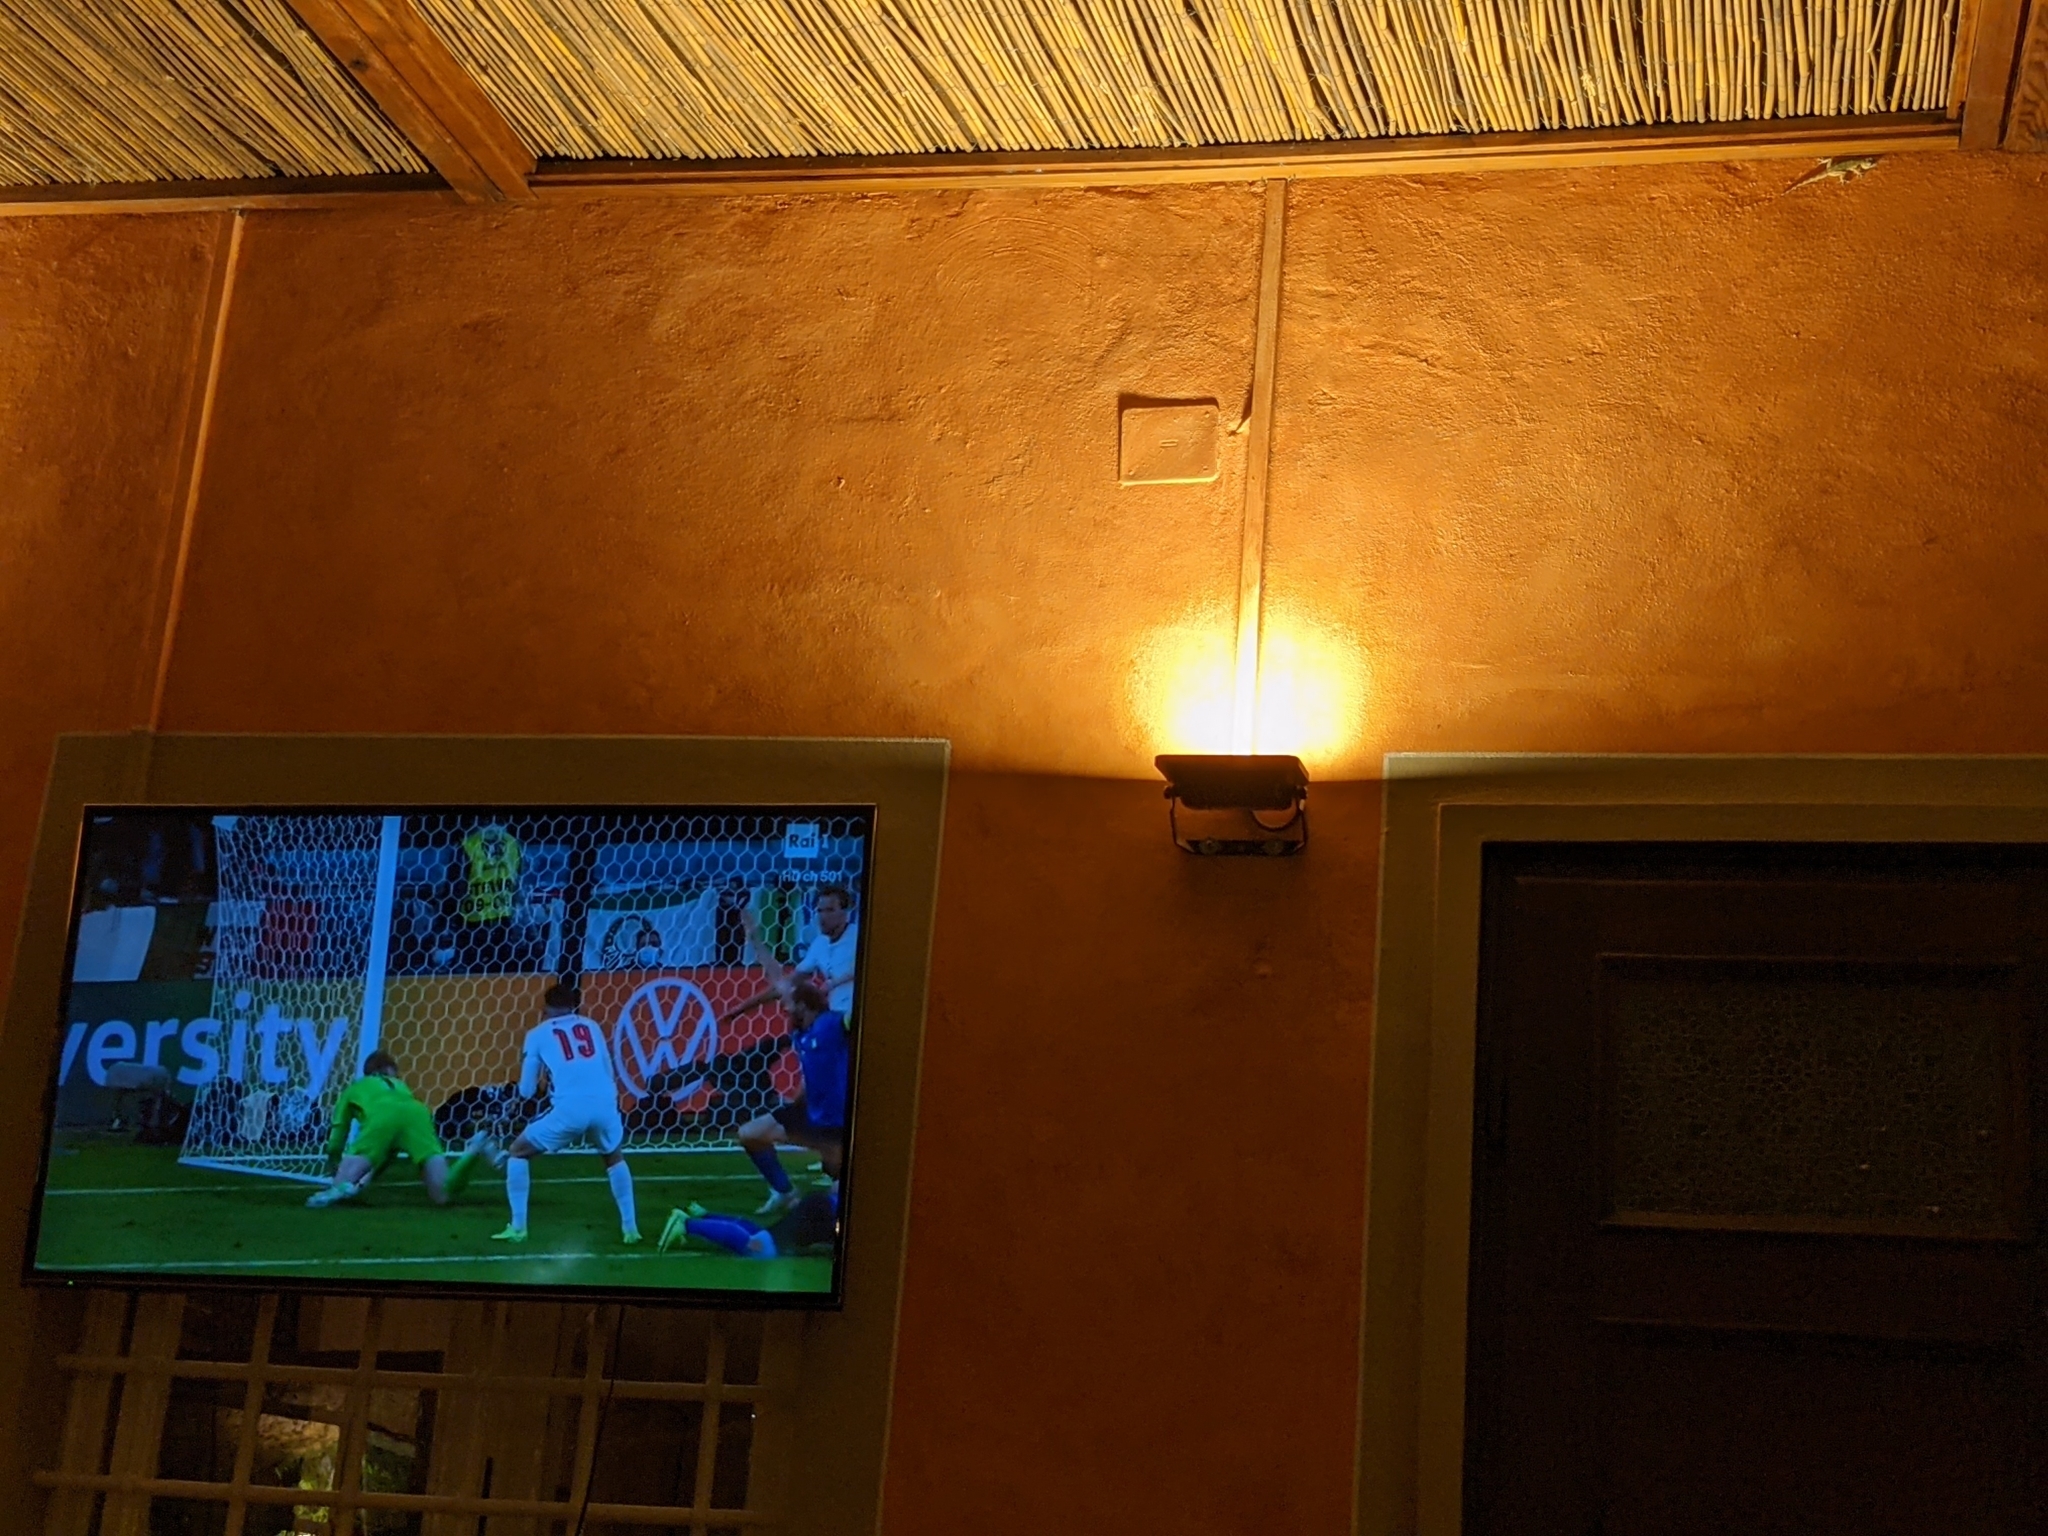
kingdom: Animalia
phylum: Chordata
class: Squamata
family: Phyllodactylidae
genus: Tarentola
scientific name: Tarentola mauritanica
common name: Moorish gecko
